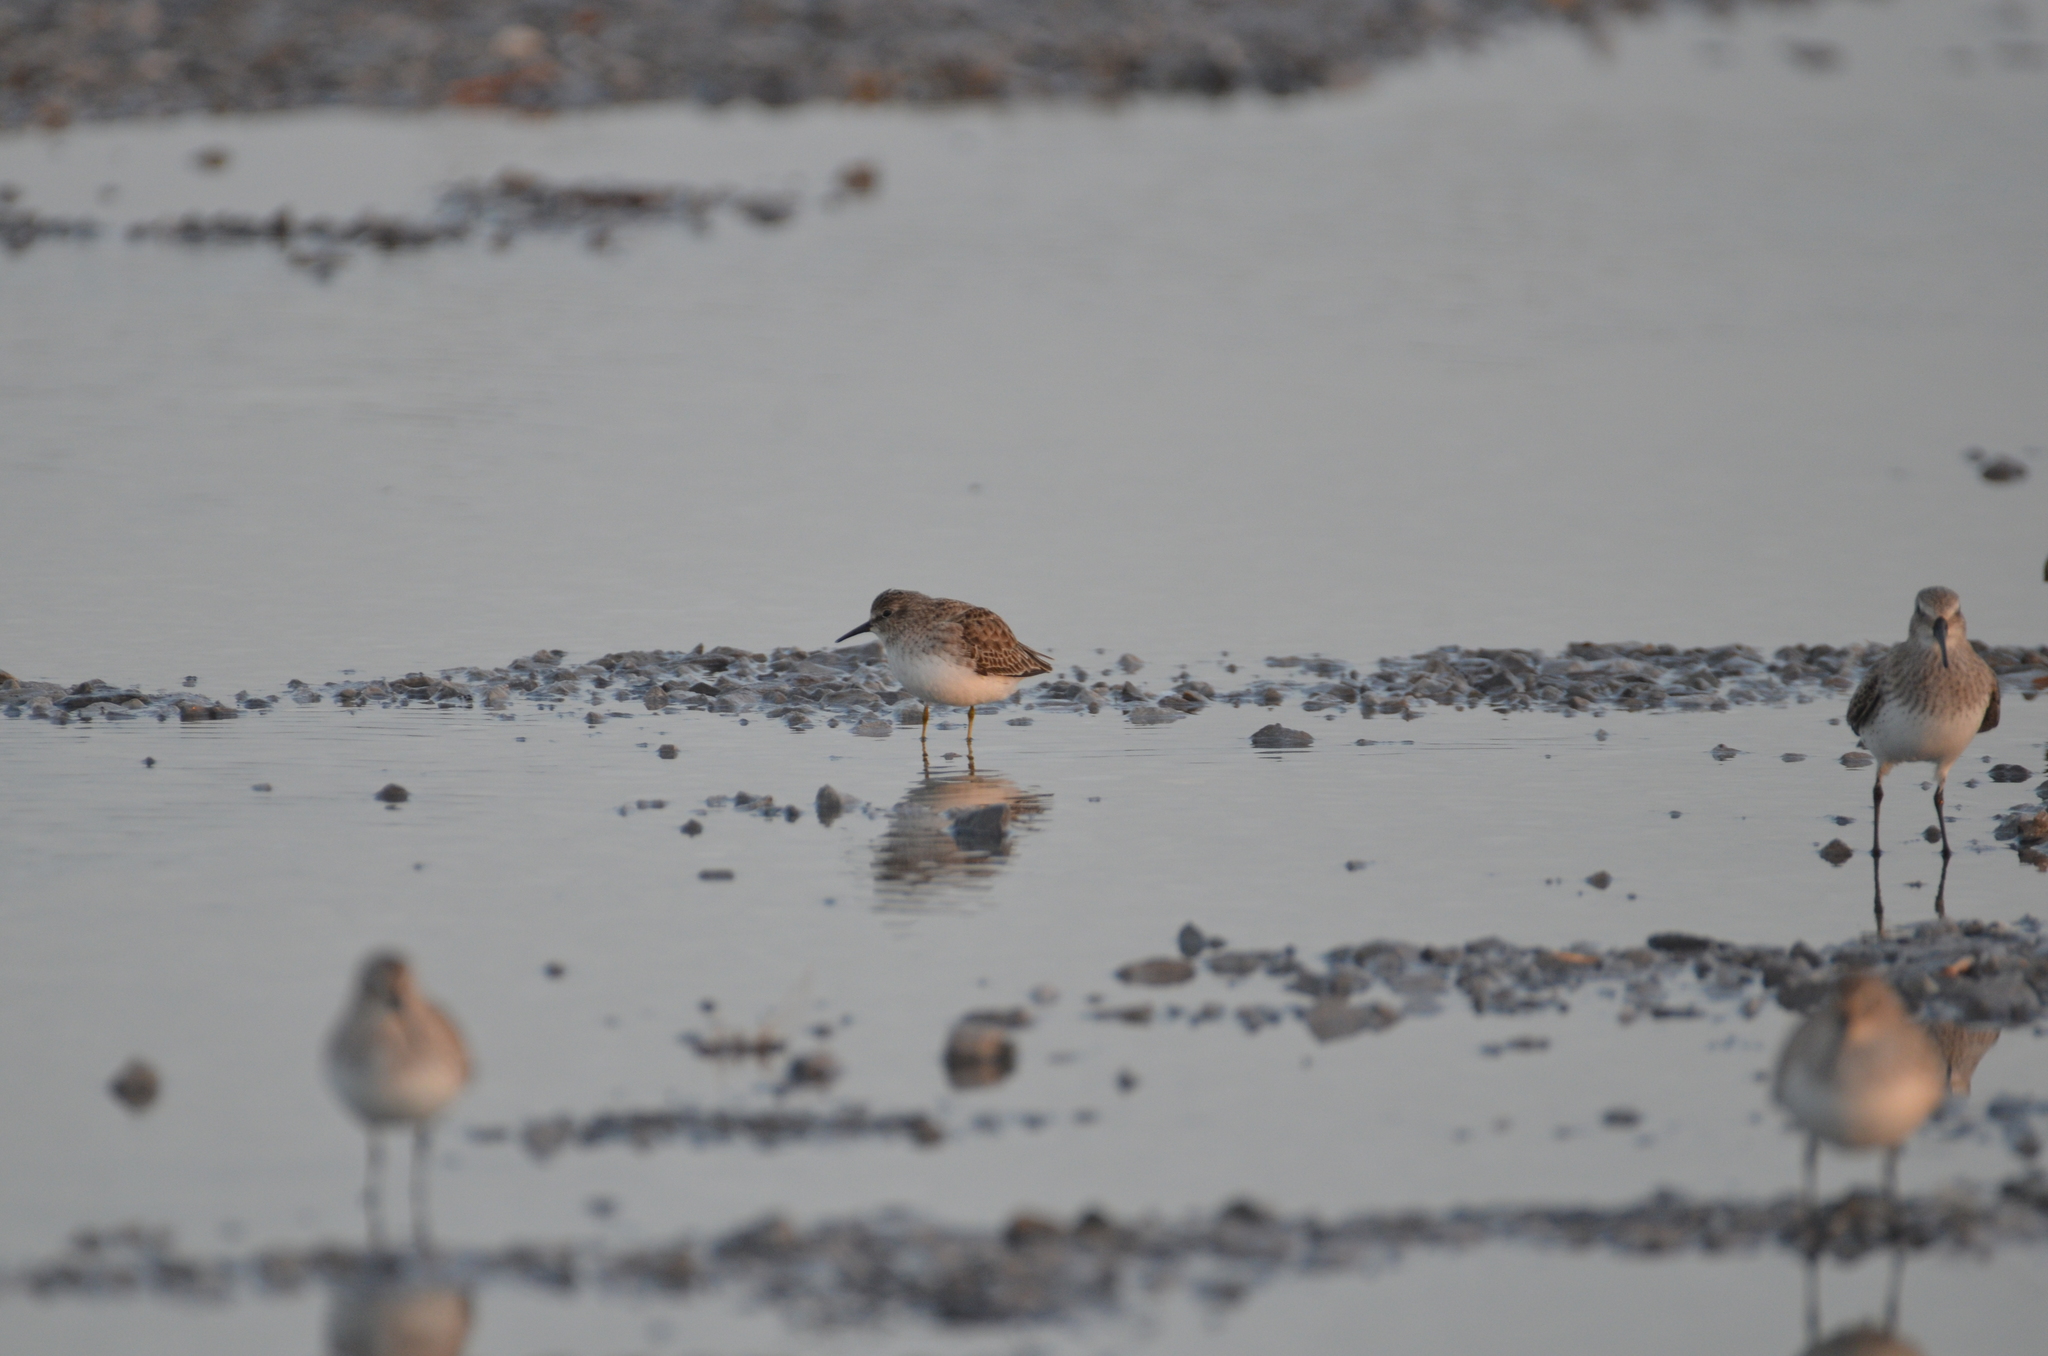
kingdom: Animalia
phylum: Chordata
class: Aves
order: Charadriiformes
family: Scolopacidae
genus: Calidris
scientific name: Calidris minutilla
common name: Least sandpiper
